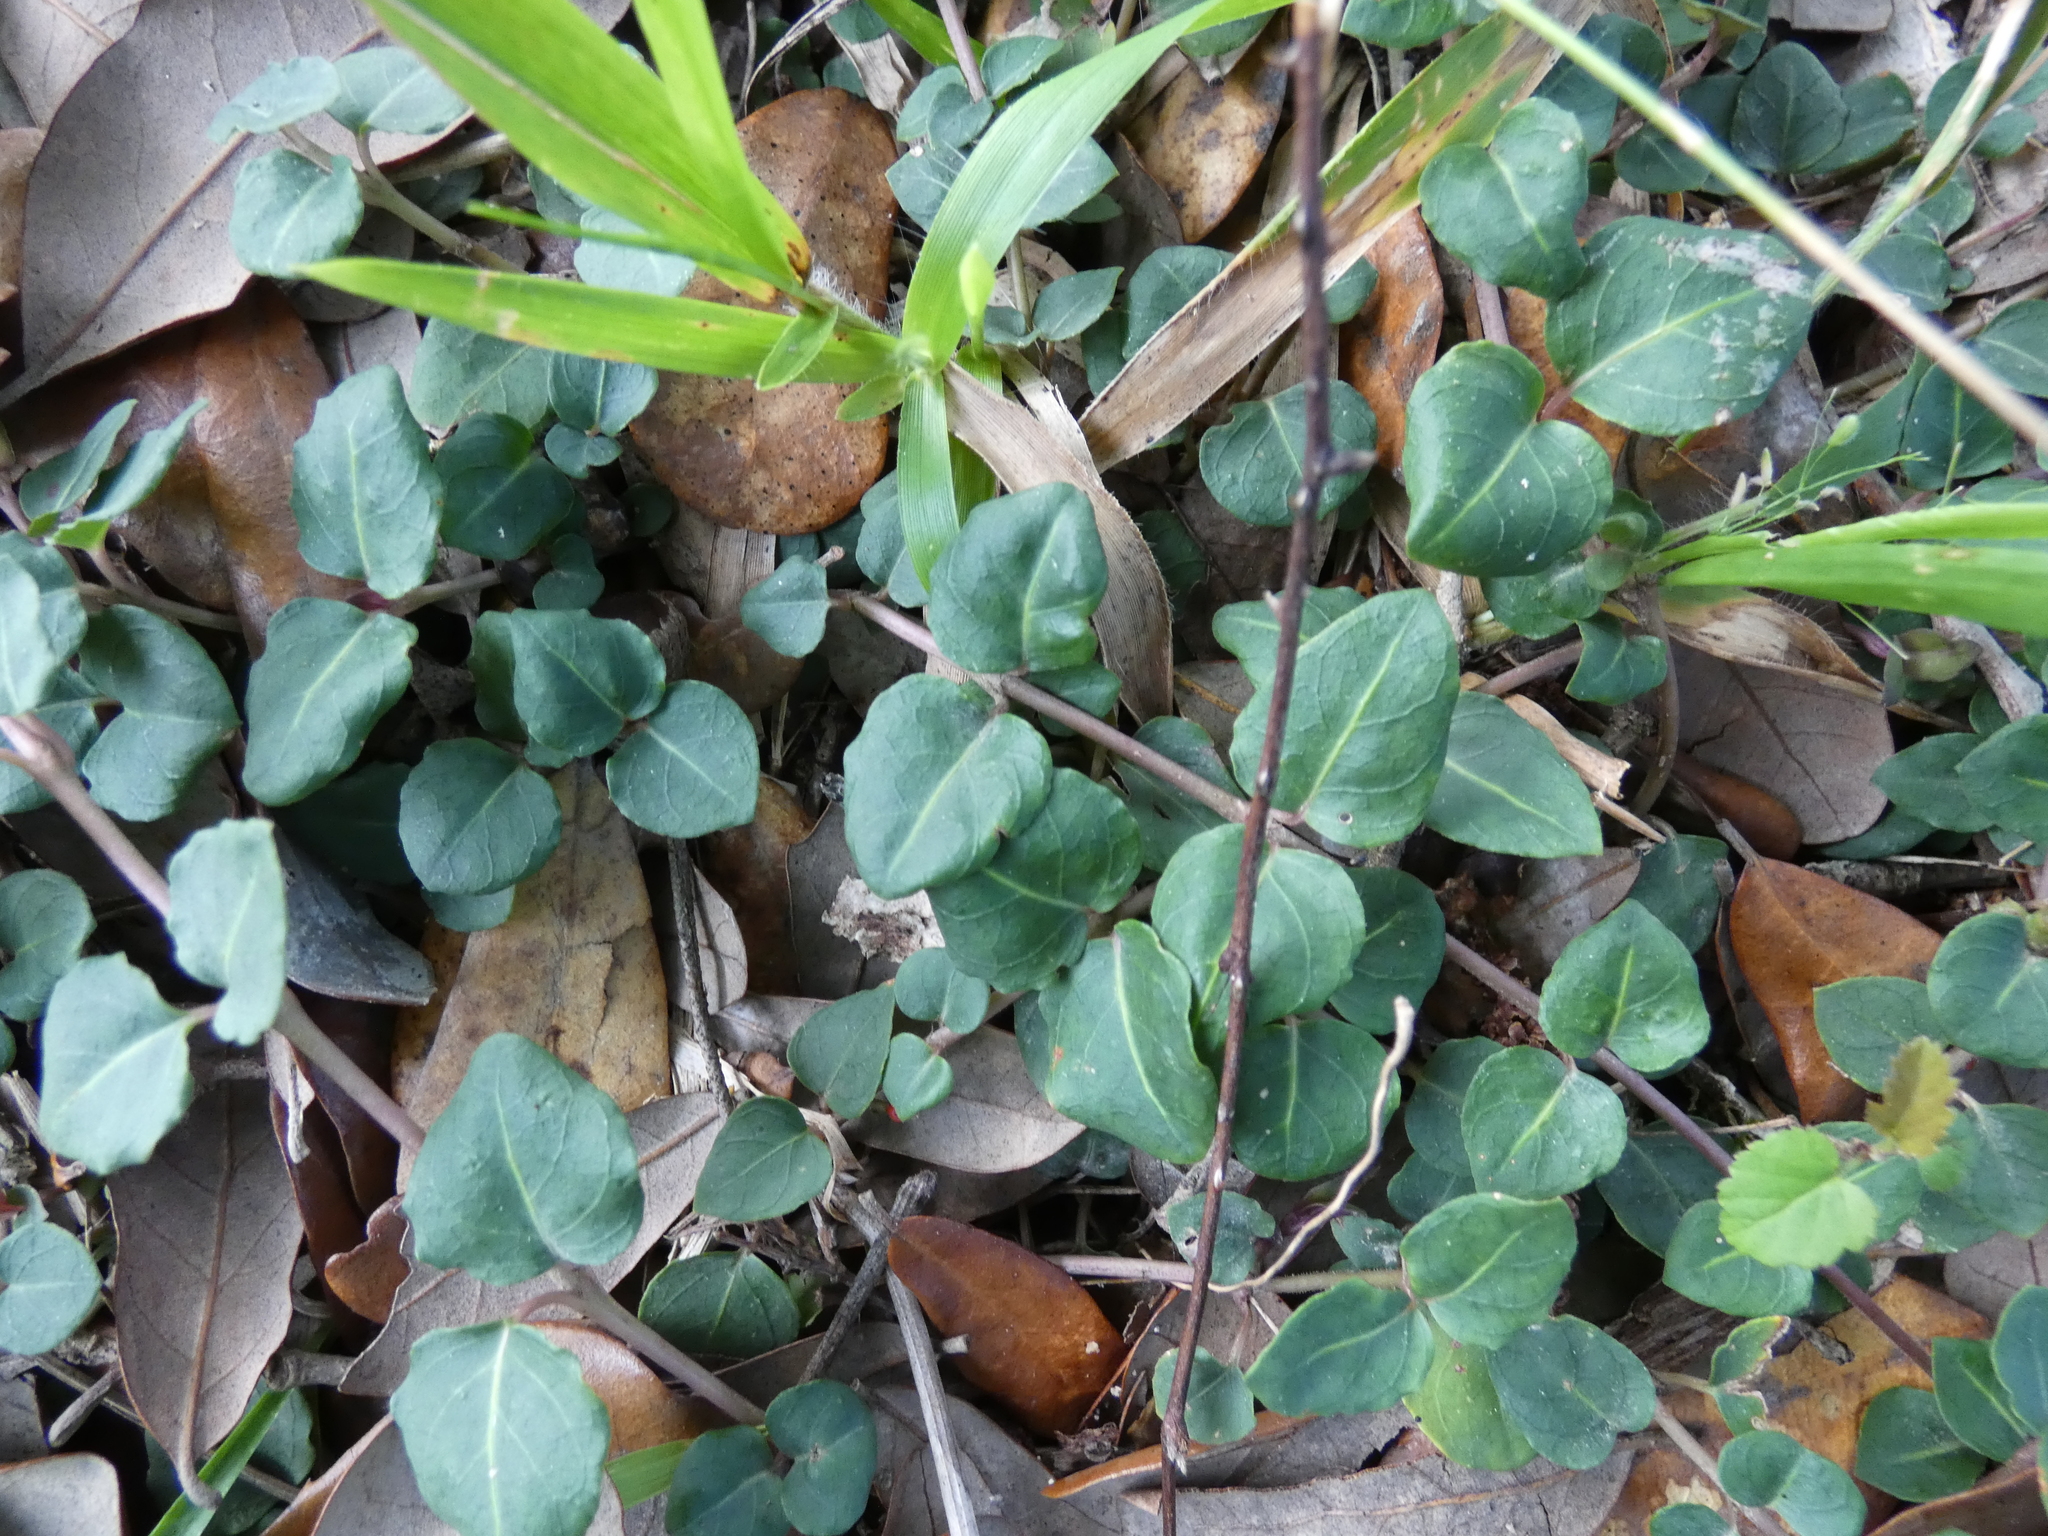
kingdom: Plantae
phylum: Tracheophyta
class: Magnoliopsida
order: Gentianales
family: Rubiaceae
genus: Mitchella
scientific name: Mitchella repens
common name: Partridge-berry
